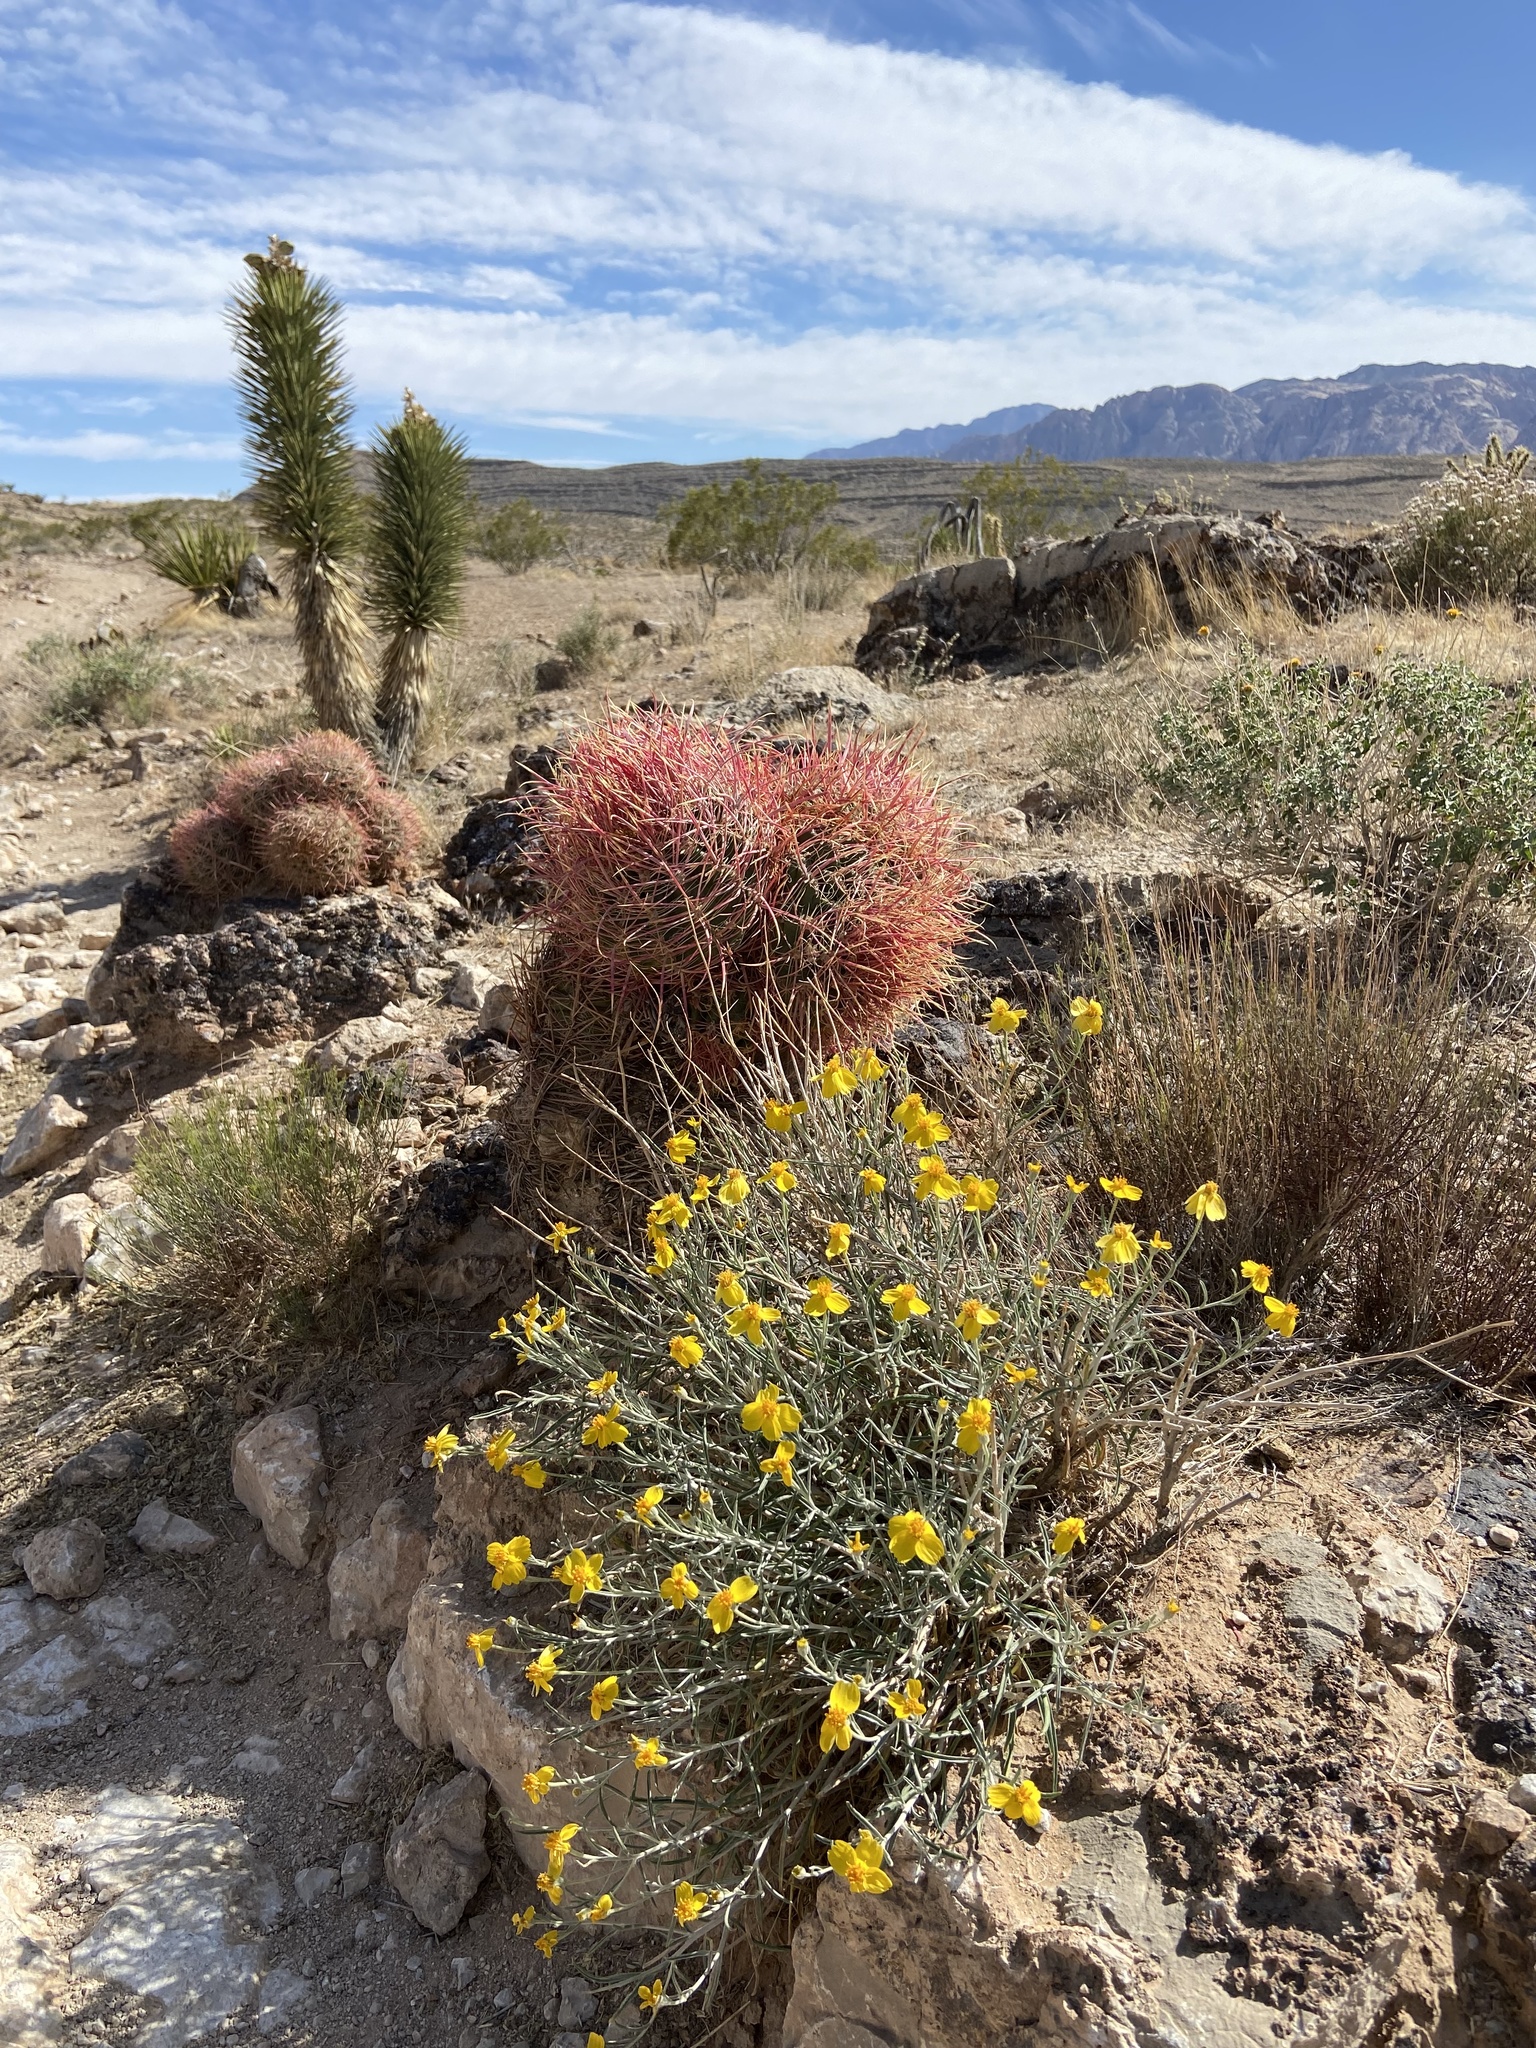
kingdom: Plantae
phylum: Tracheophyta
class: Magnoliopsida
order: Asterales
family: Asteraceae
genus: Psilostrophe
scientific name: Psilostrophe cooperi
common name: White-stem paper-flower
